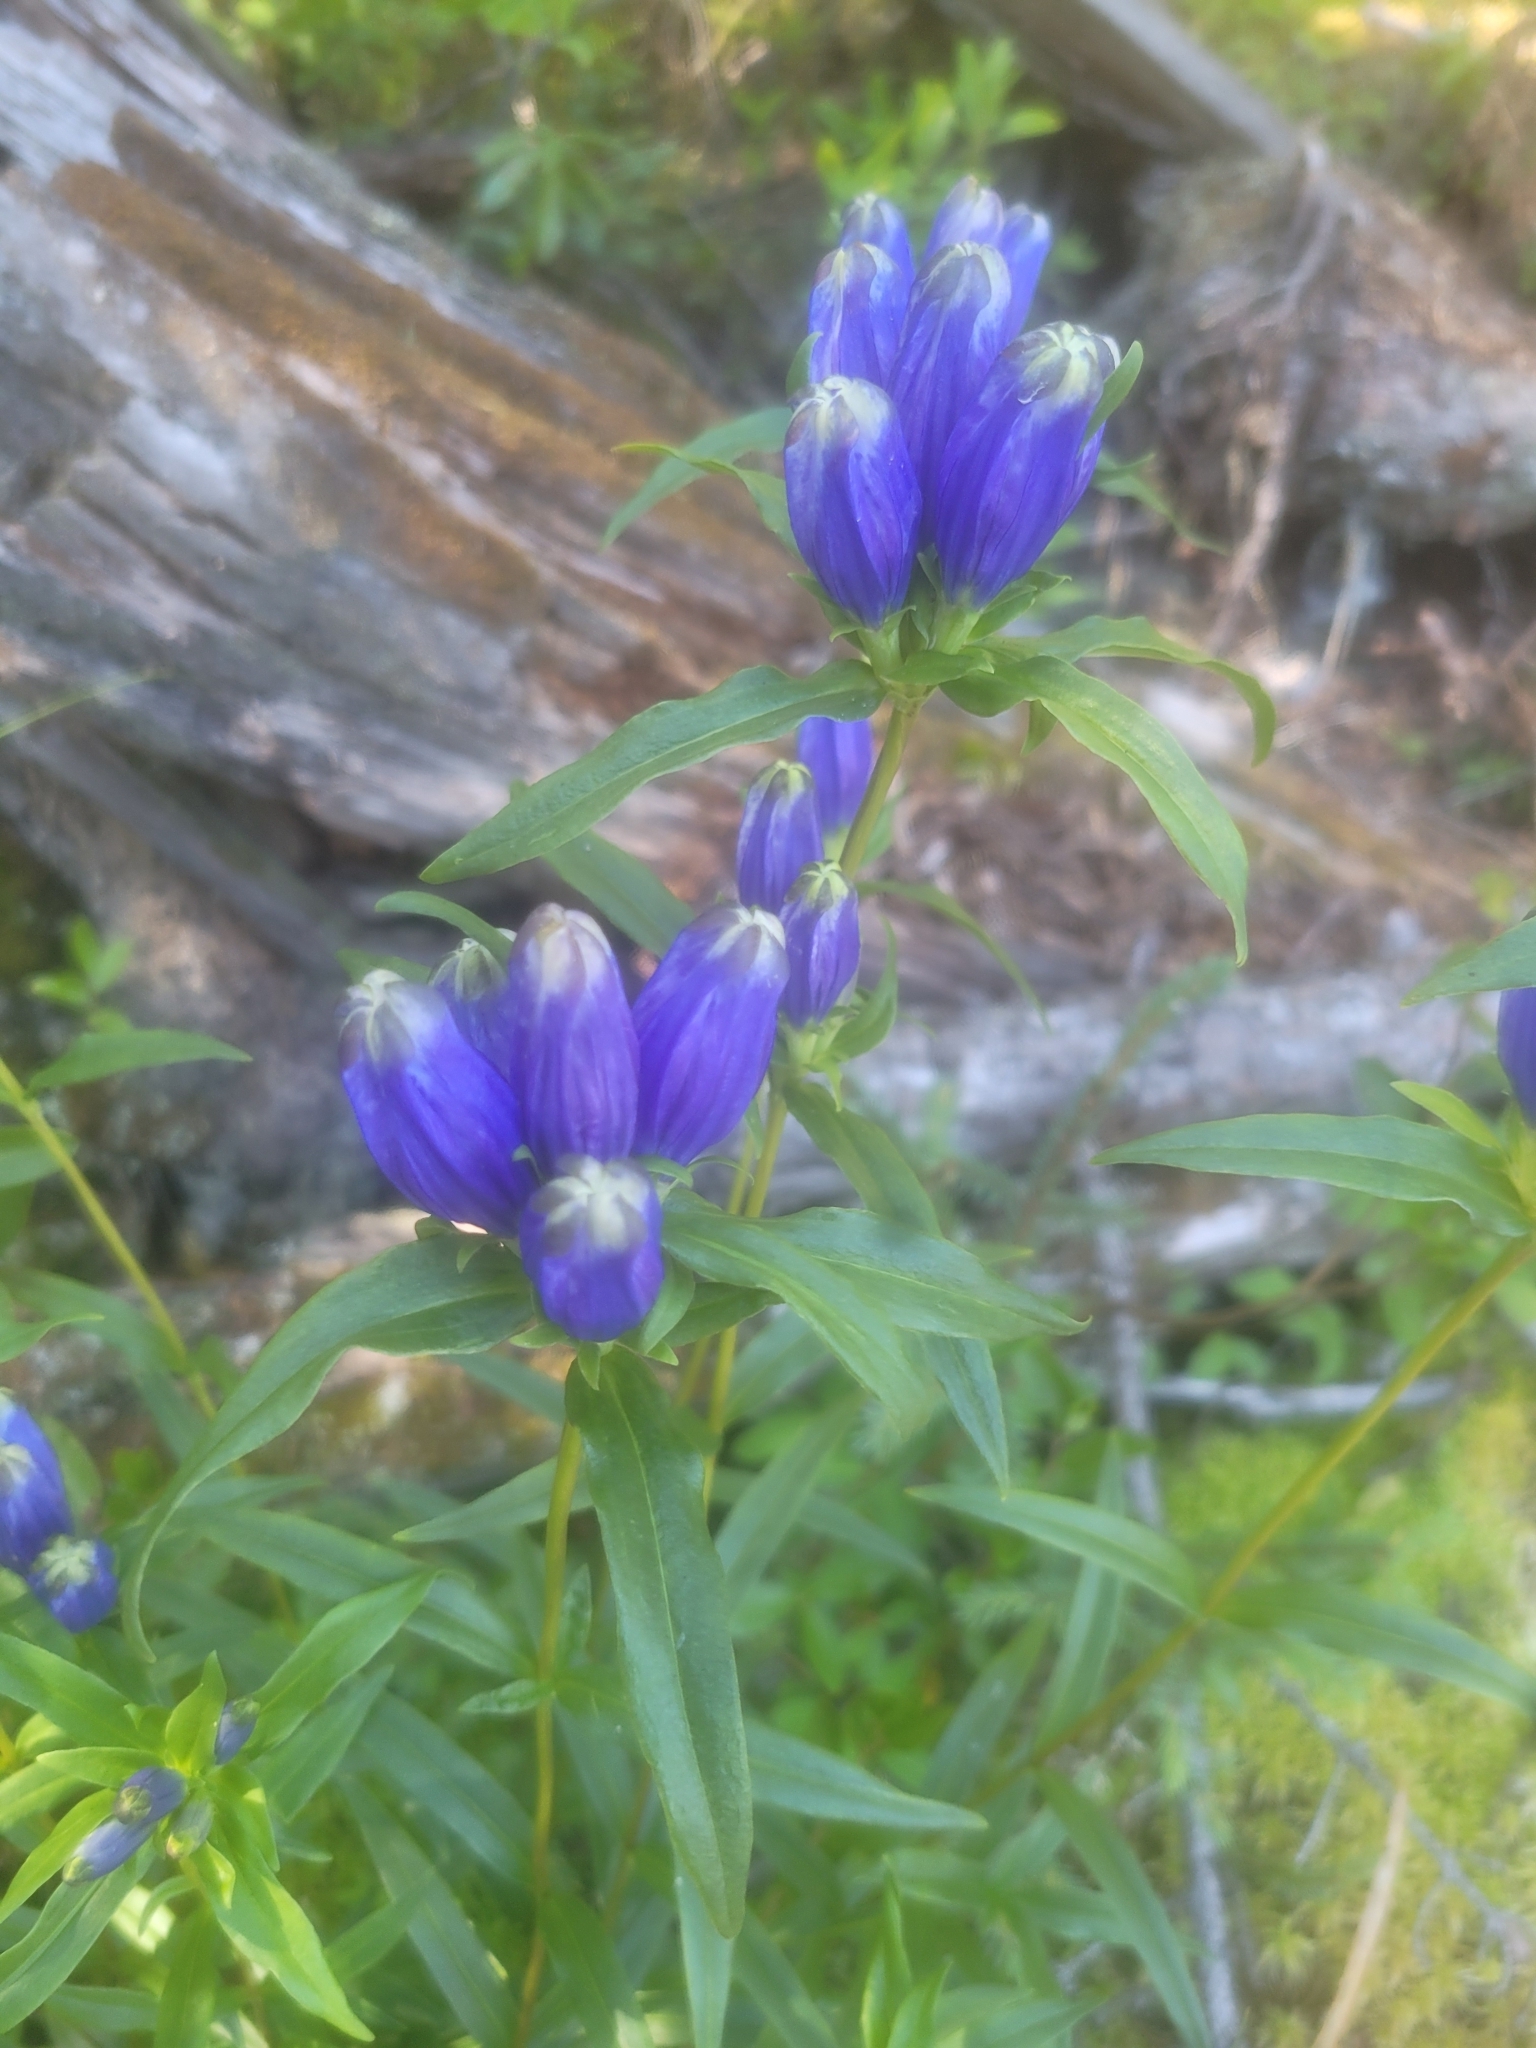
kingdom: Plantae
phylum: Tracheophyta
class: Magnoliopsida
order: Gentianales
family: Gentianaceae
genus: Gentiana
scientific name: Gentiana linearis
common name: Bastard gentian
